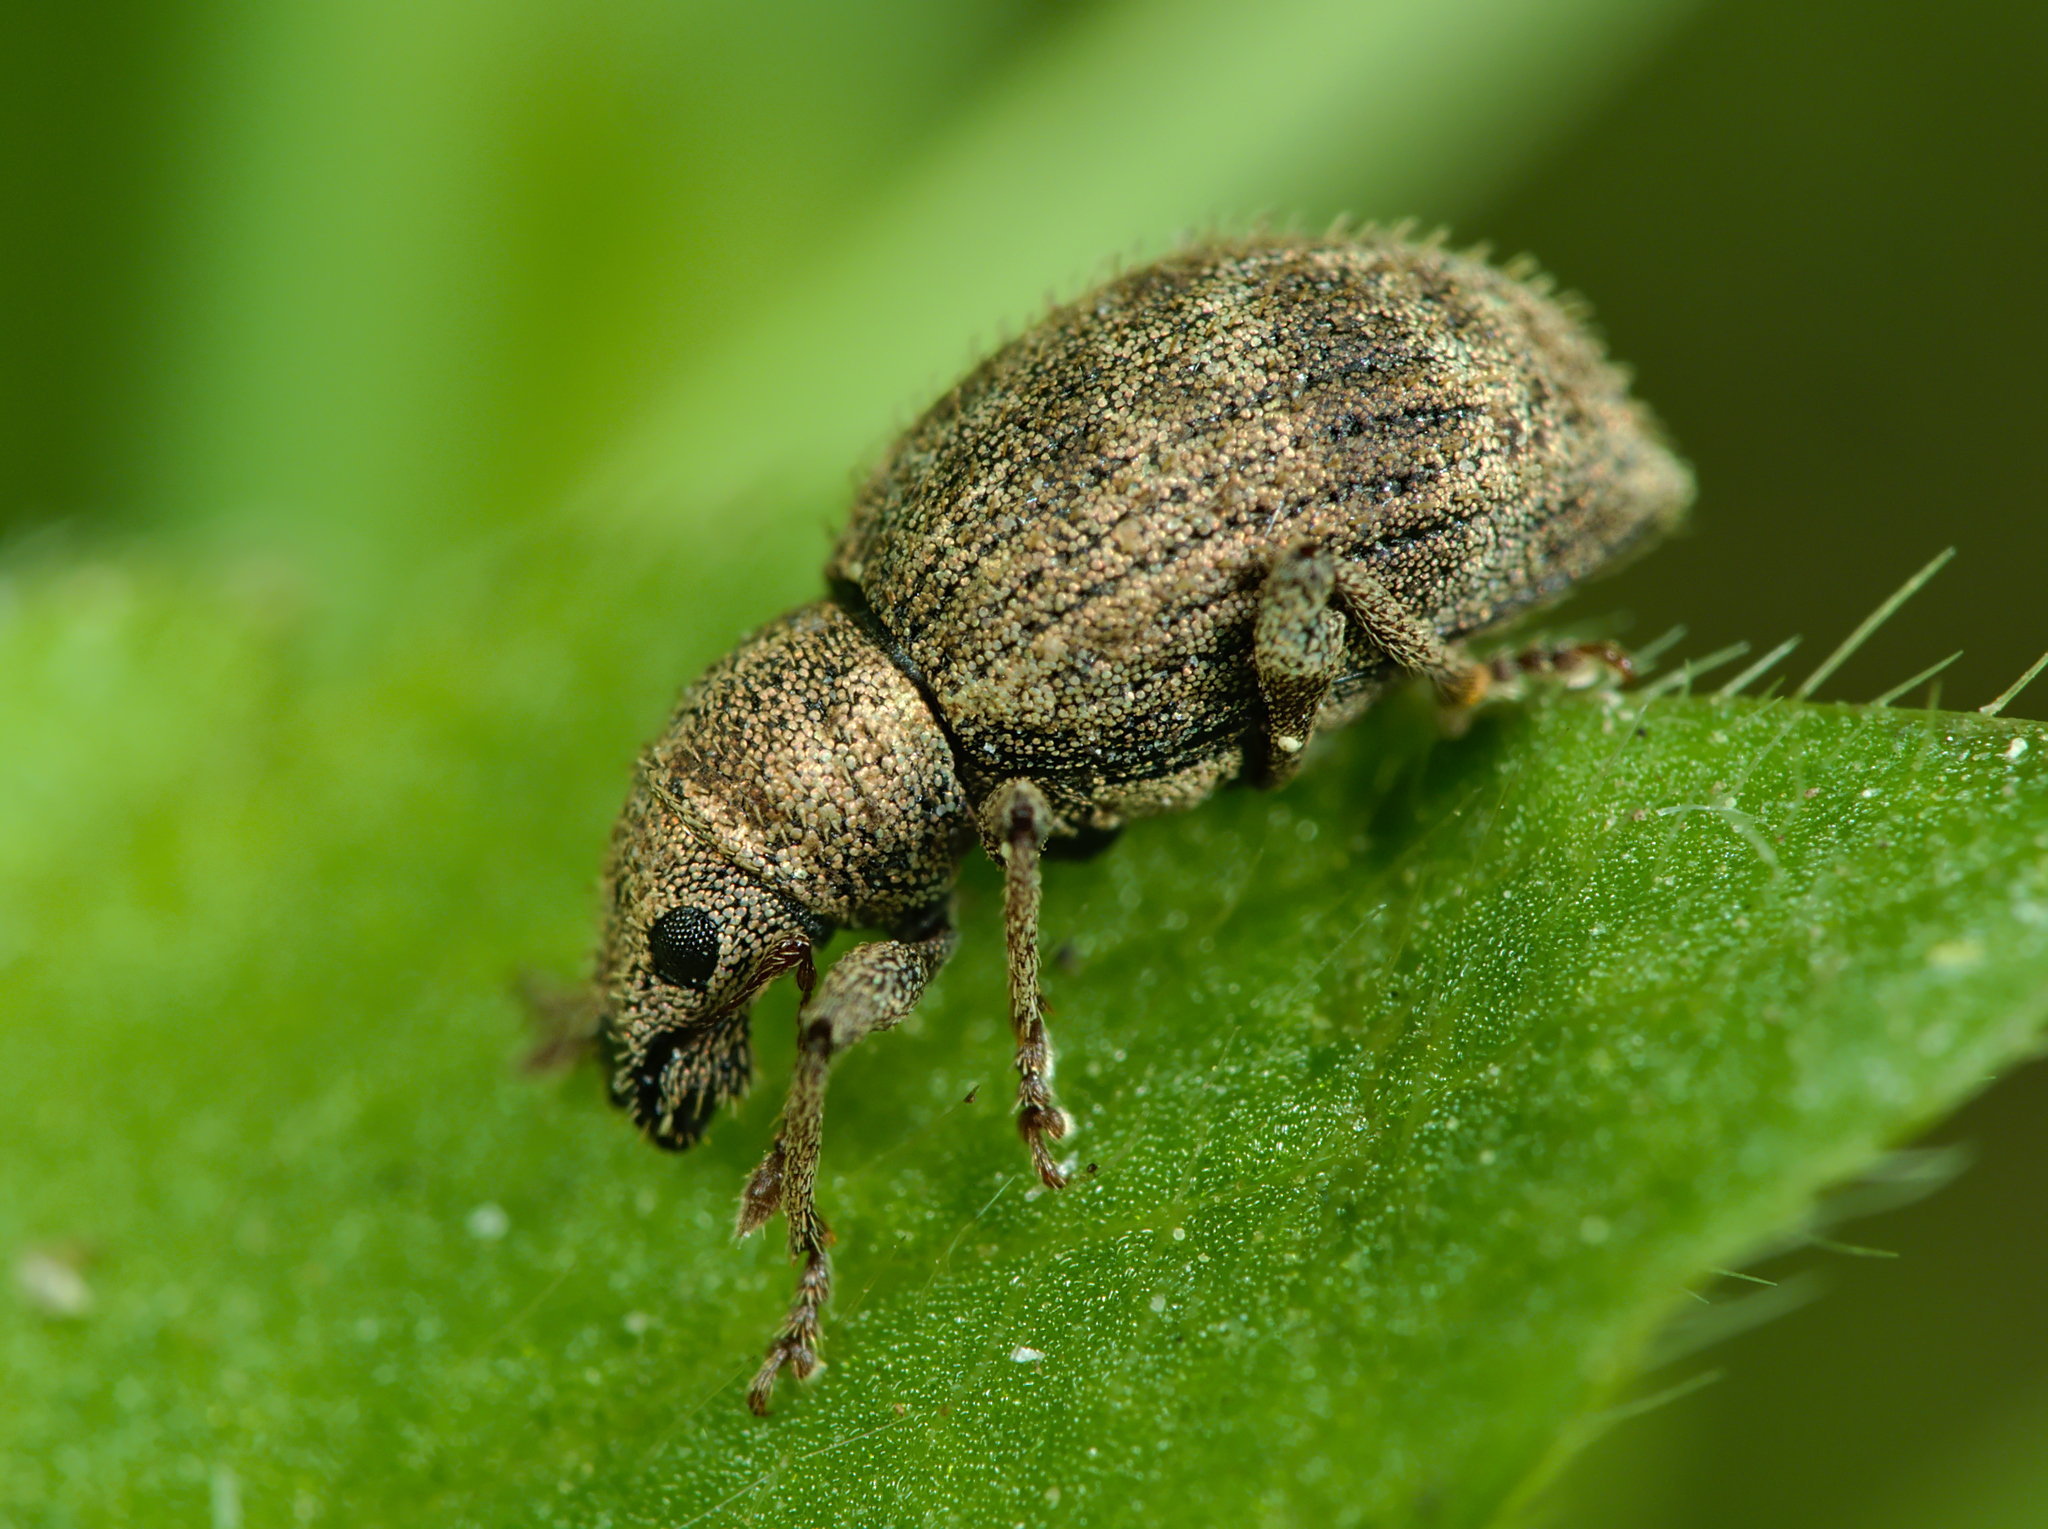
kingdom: Animalia
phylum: Arthropoda
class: Insecta
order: Coleoptera
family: Curculionidae
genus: Sciaphilus
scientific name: Sciaphilus asperatus
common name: Weevil
